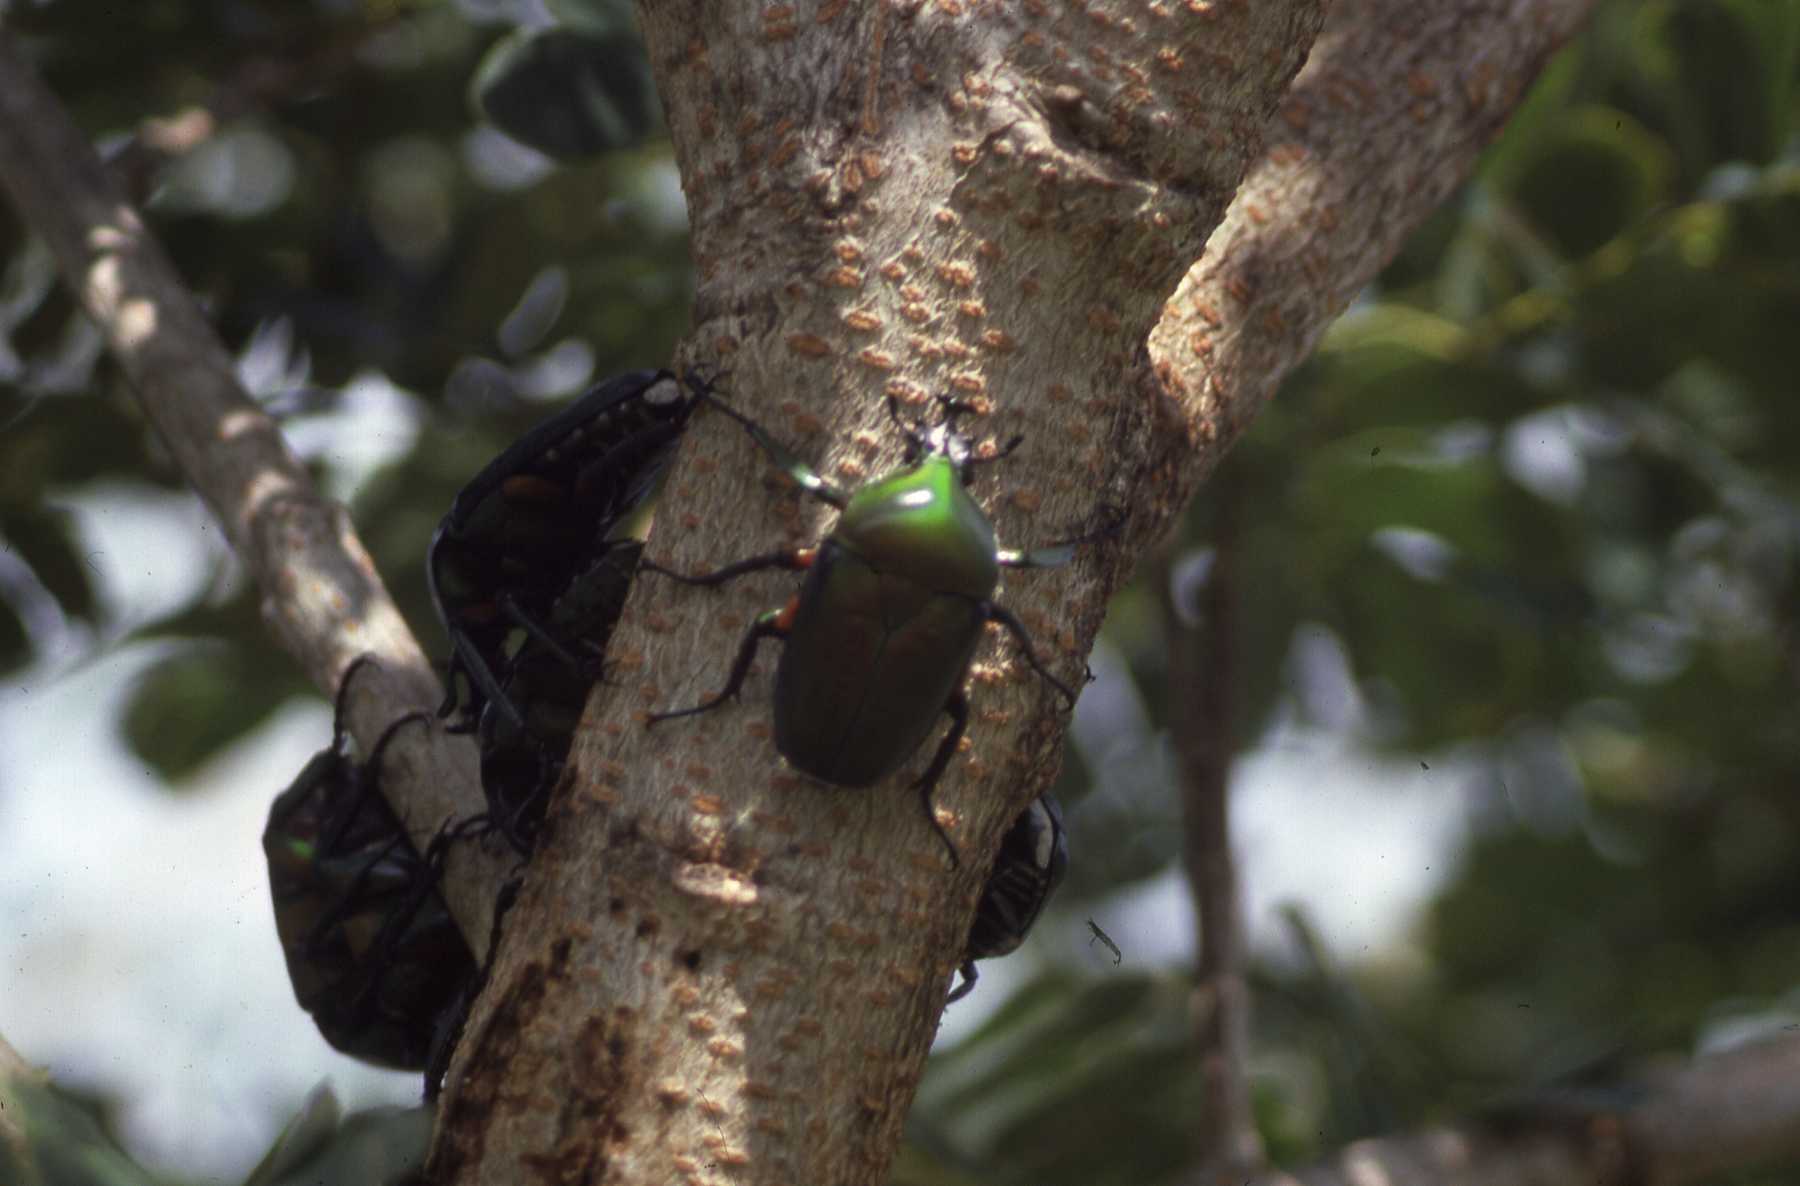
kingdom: Animalia
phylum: Arthropoda
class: Insecta
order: Coleoptera
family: Scarabaeidae
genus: Dicronorhina
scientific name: Dicronorhina derbyana
